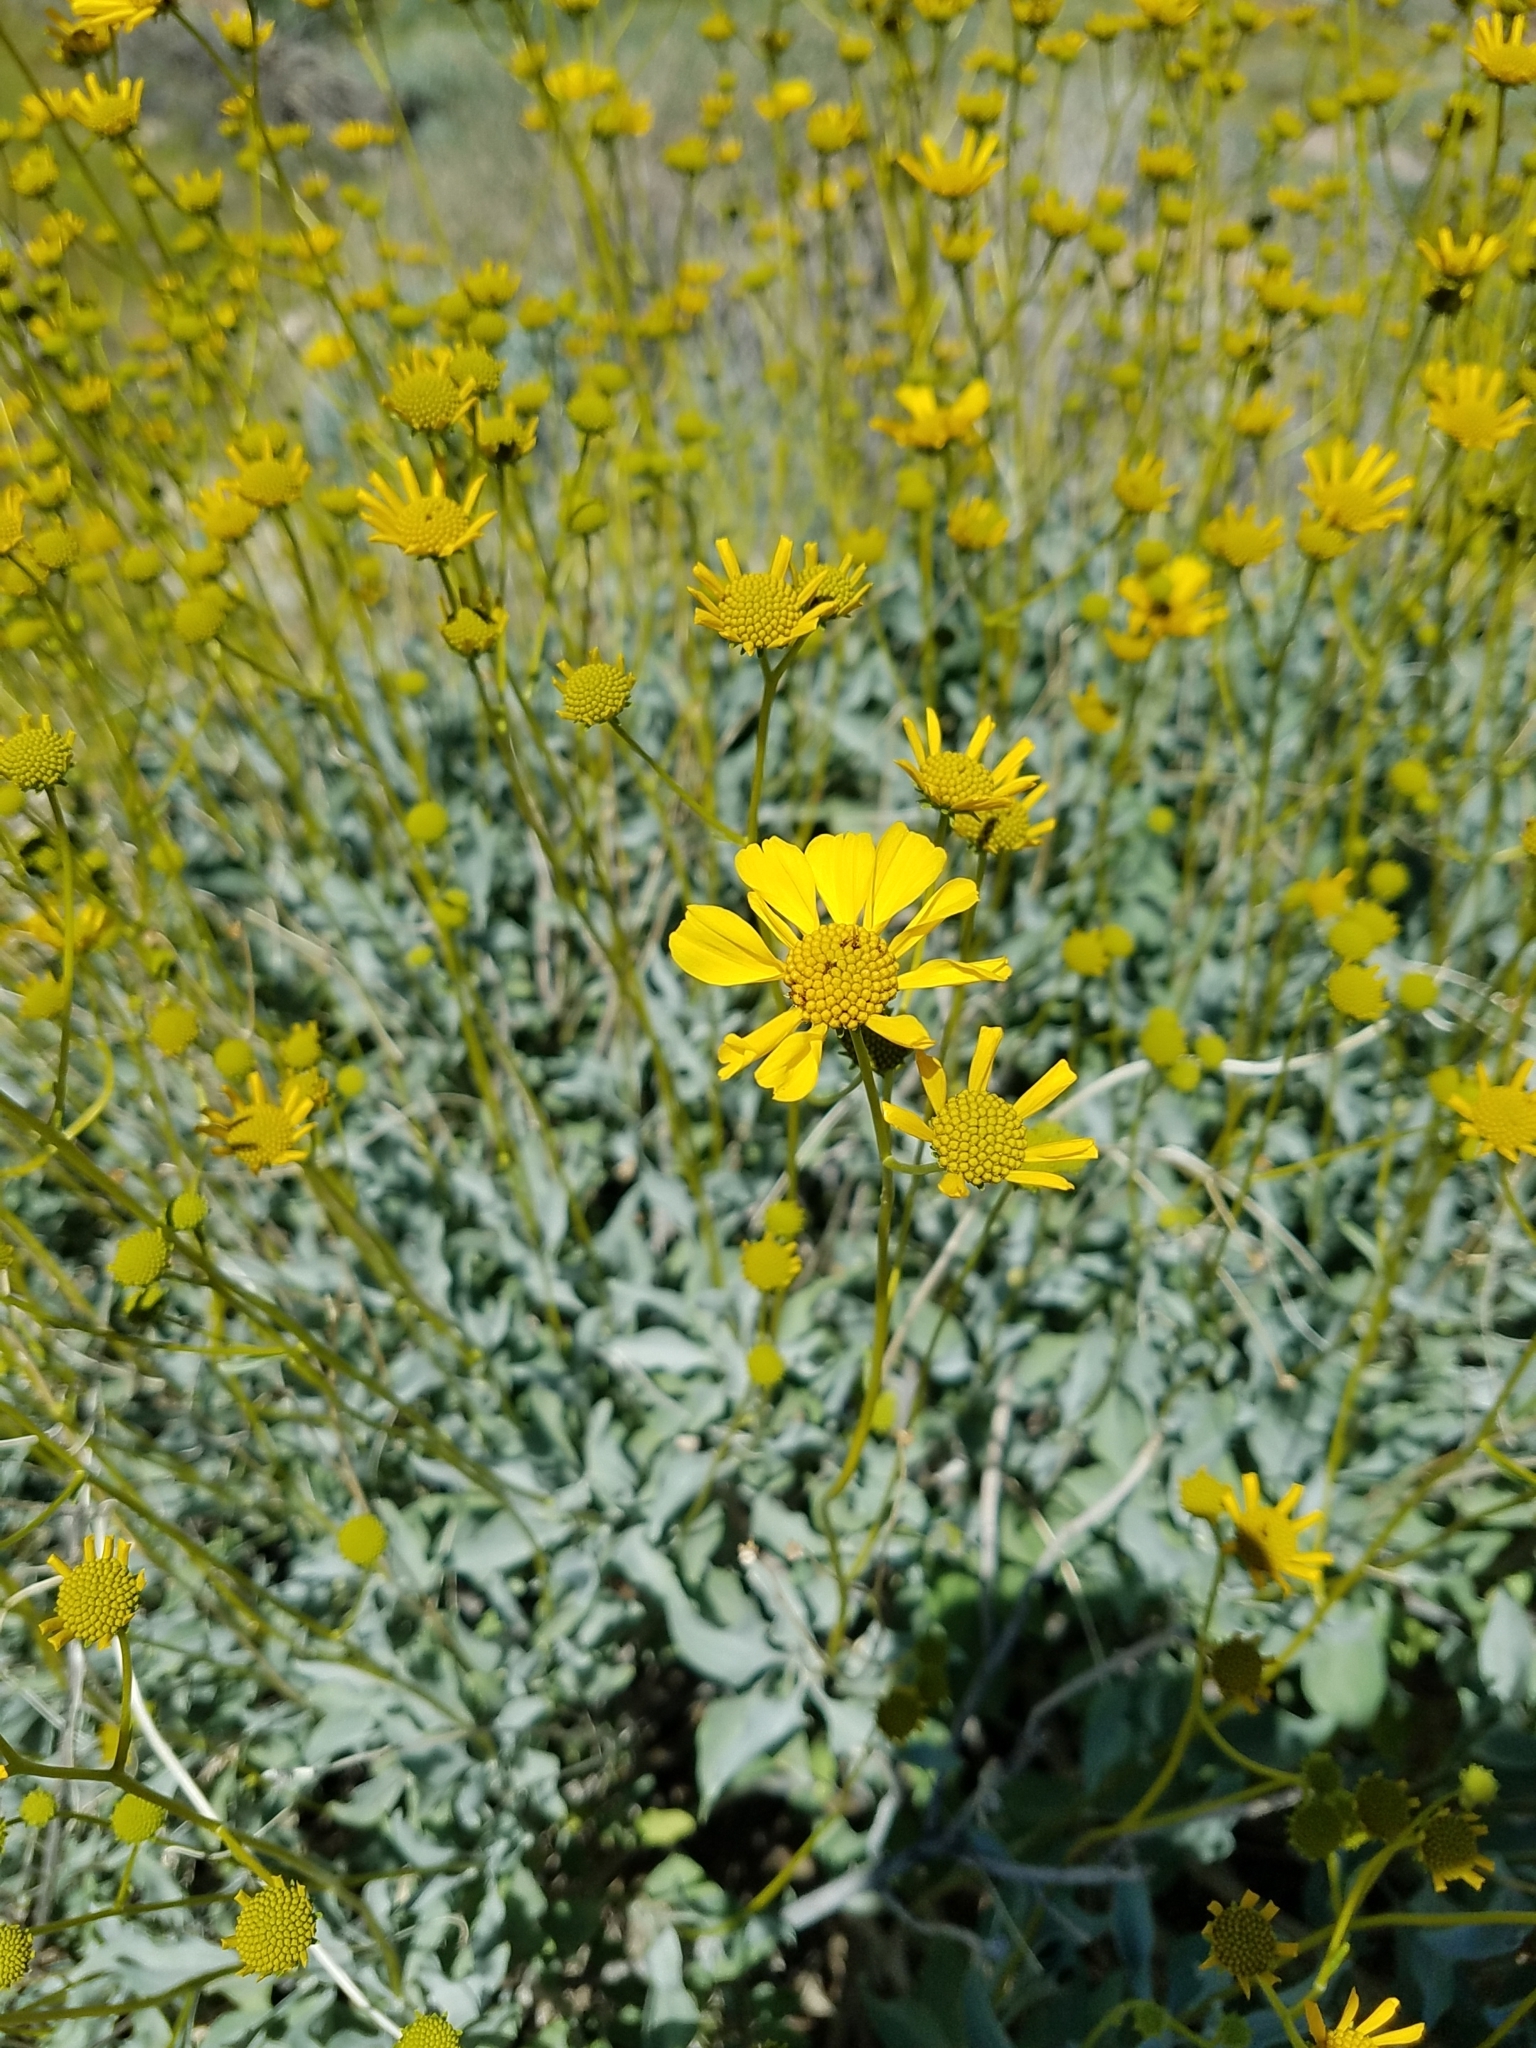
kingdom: Plantae
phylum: Tracheophyta
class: Magnoliopsida
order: Asterales
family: Asteraceae
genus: Encelia
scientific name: Encelia farinosa
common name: Brittlebush
